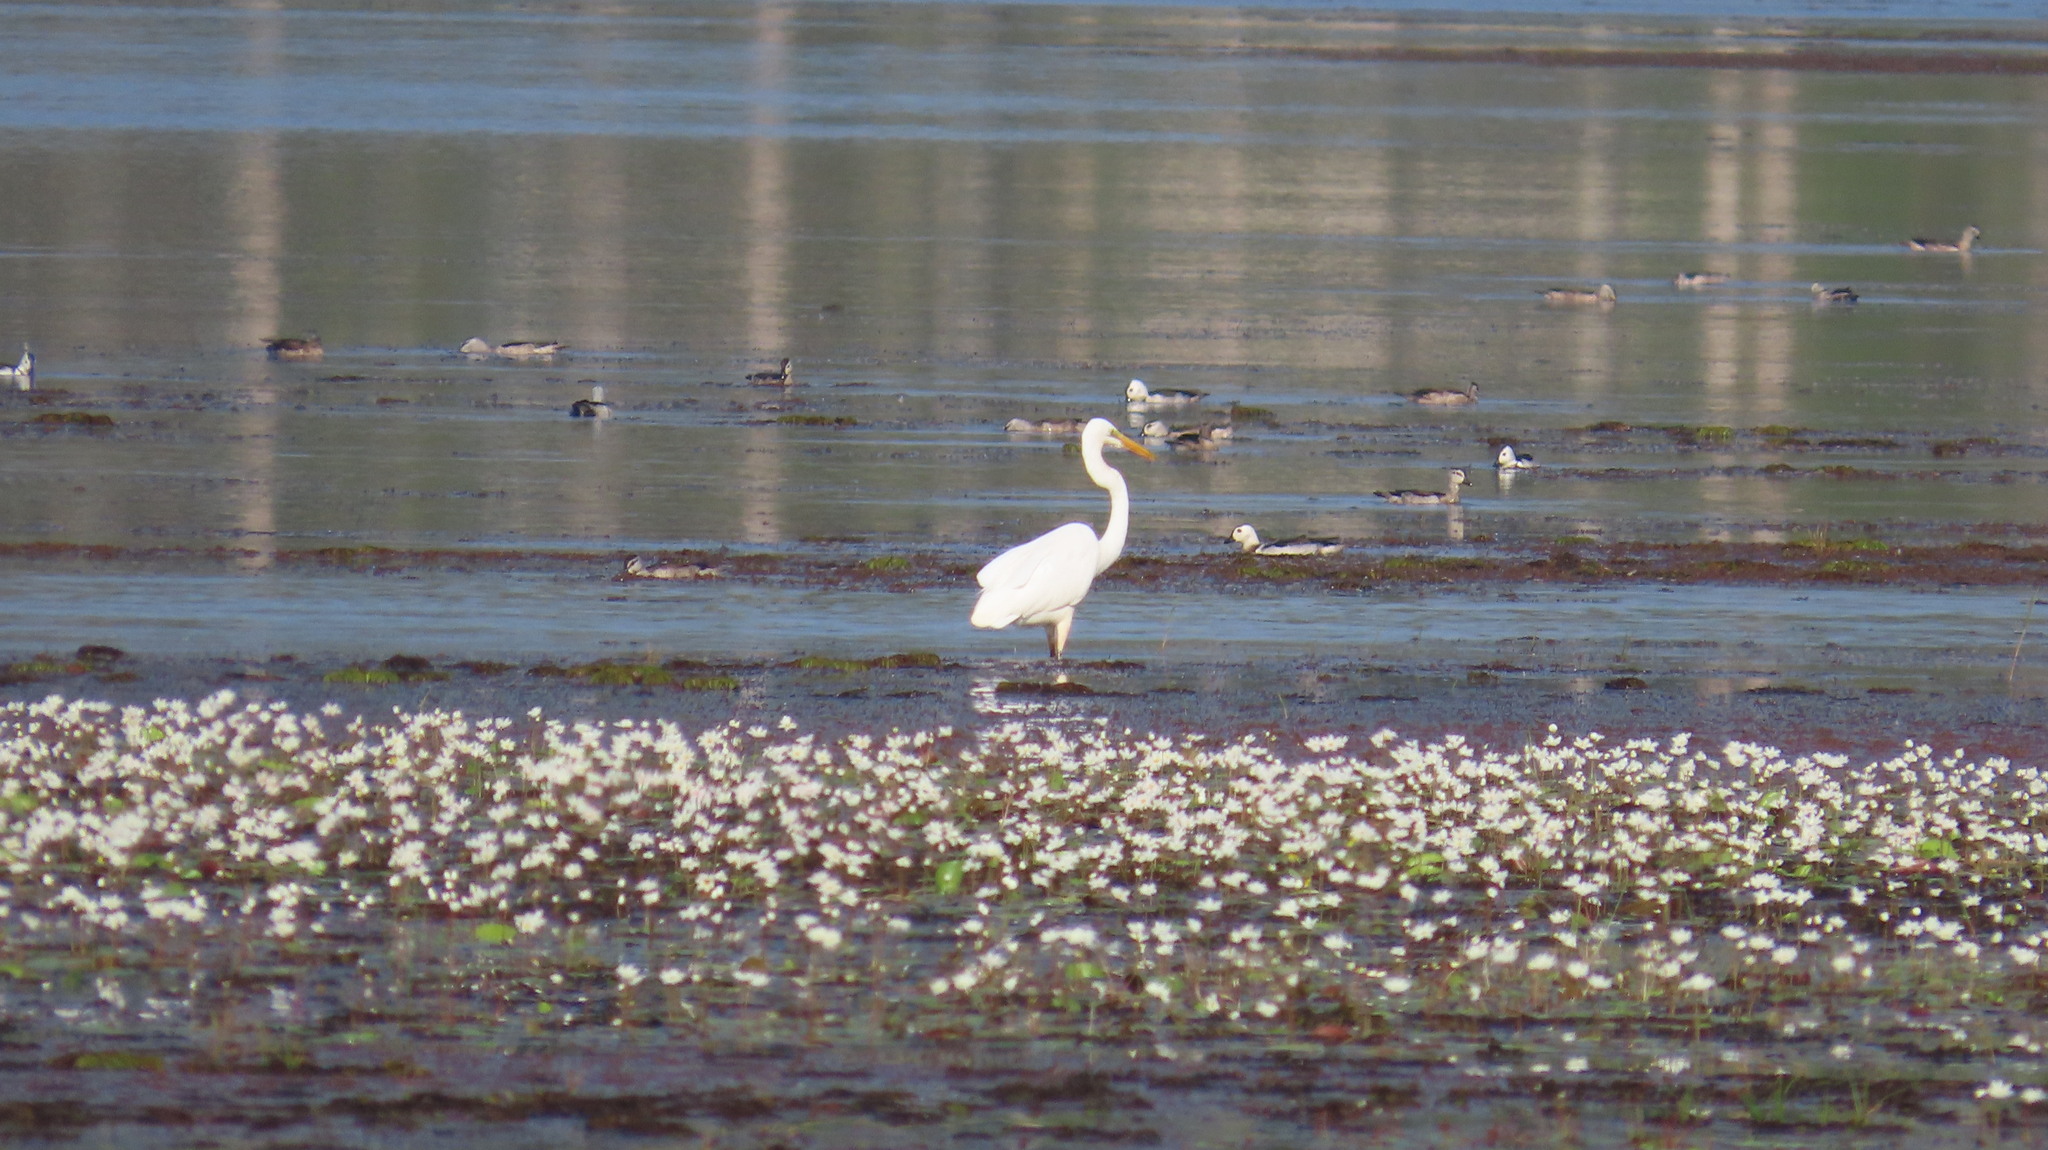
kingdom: Animalia
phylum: Chordata
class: Aves
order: Anseriformes
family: Anatidae
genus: Nettapus
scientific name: Nettapus coromandelianus
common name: Cotton pygmy-goose
